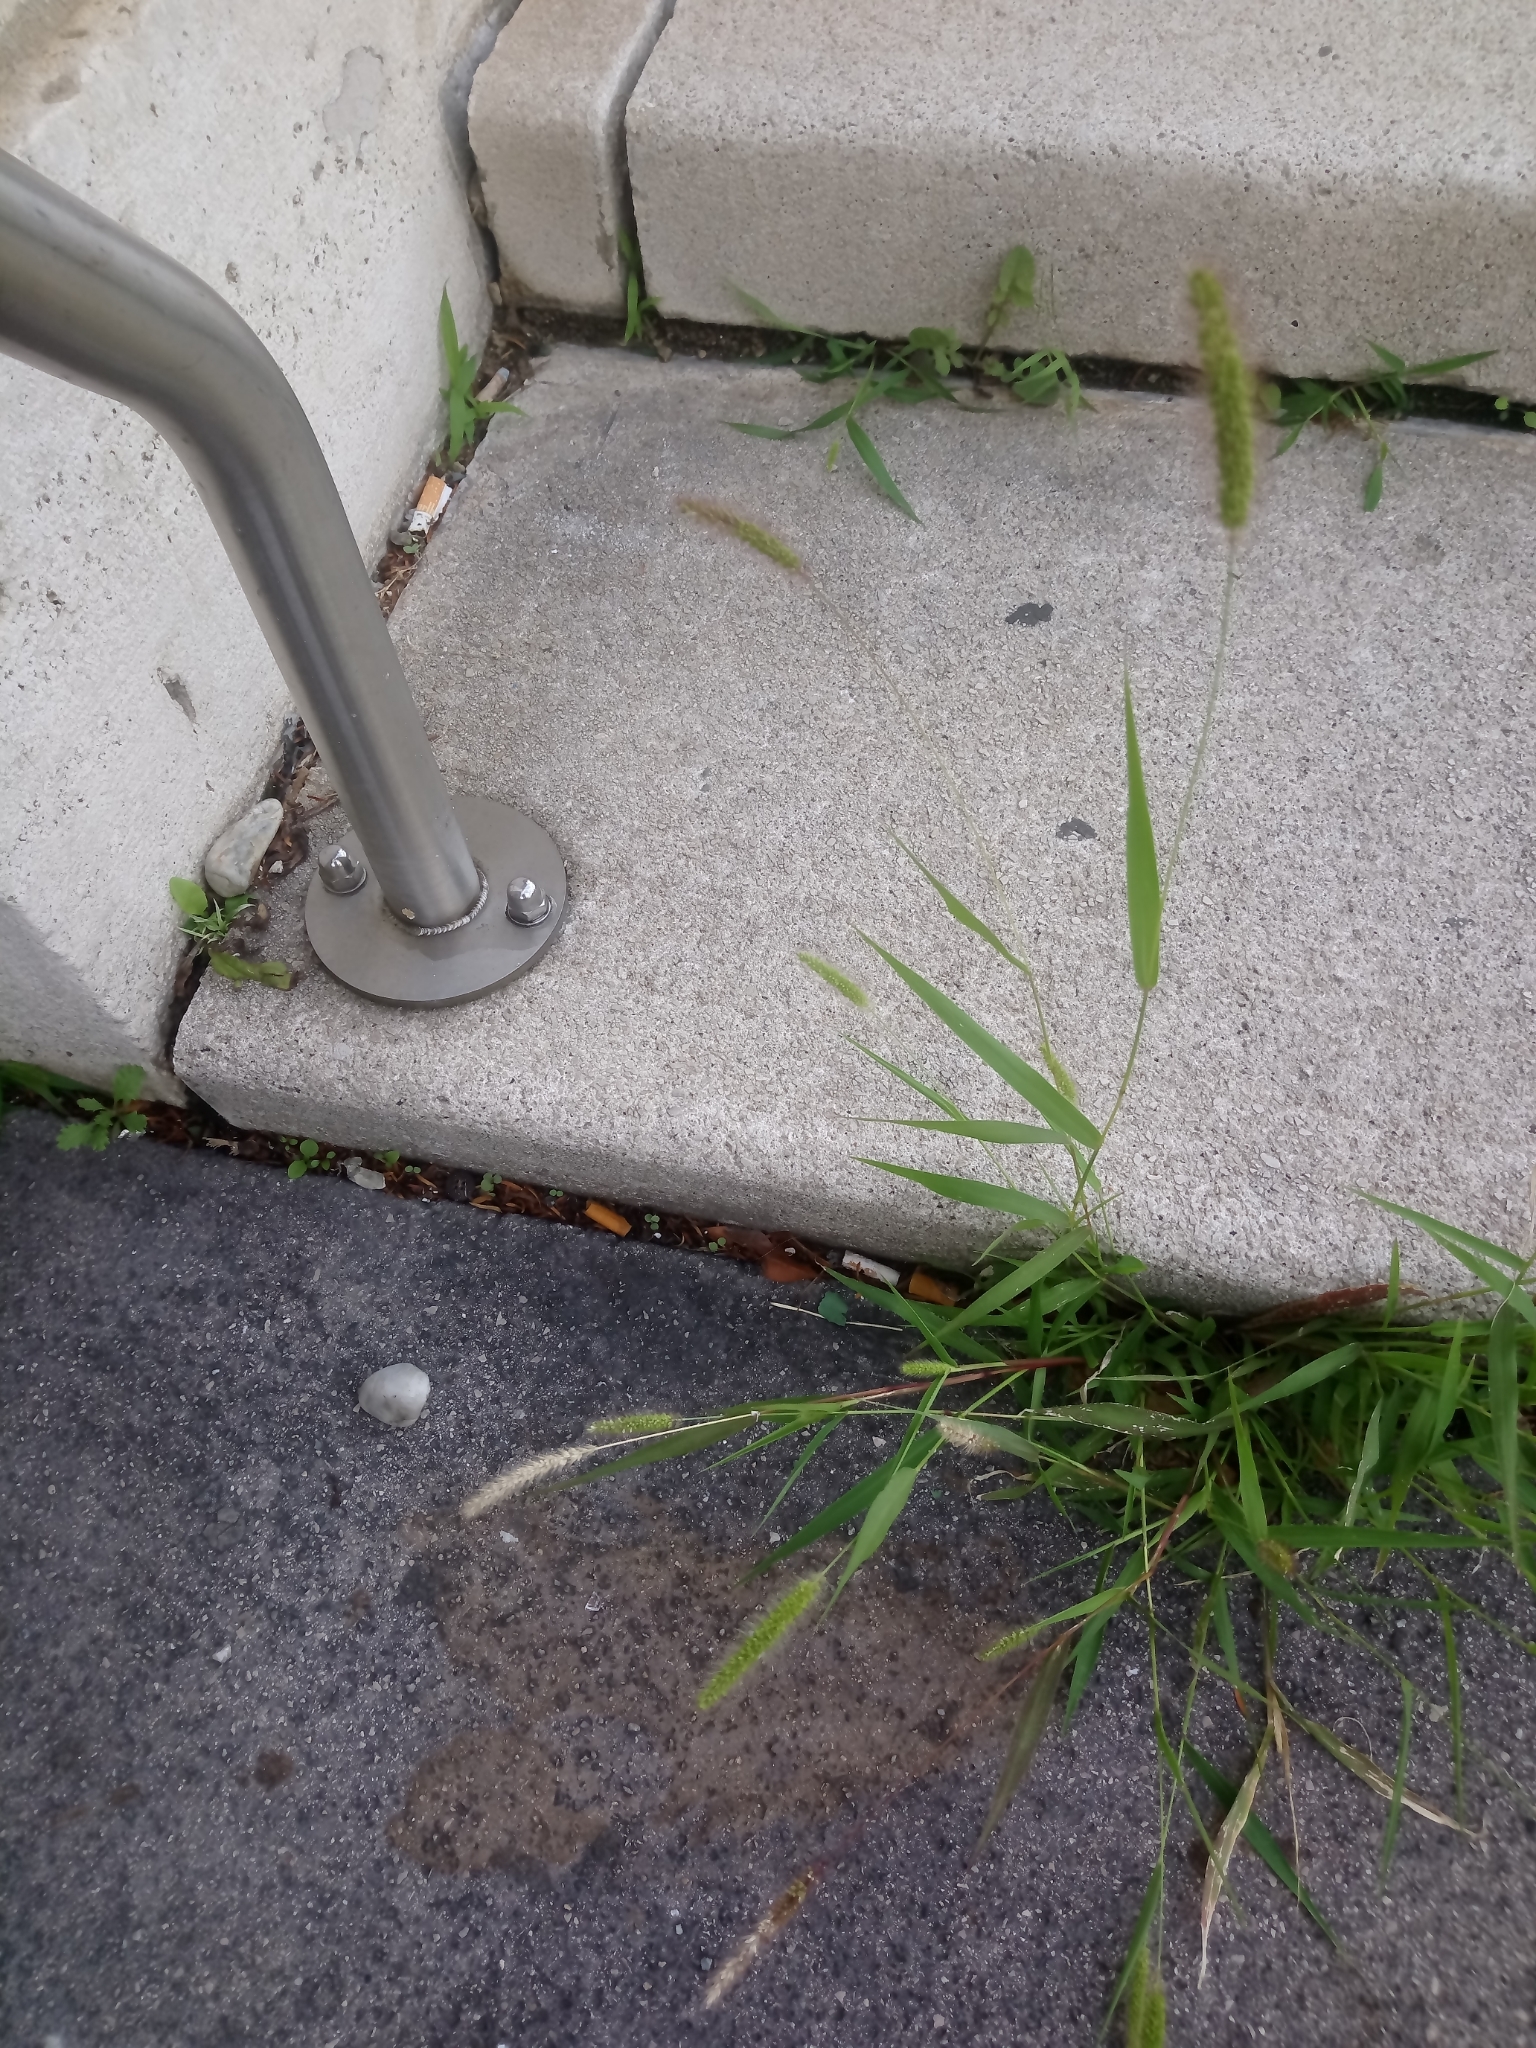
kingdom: Plantae
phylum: Tracheophyta
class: Liliopsida
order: Poales
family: Poaceae
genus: Setaria
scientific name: Setaria viridis
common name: Green bristlegrass
